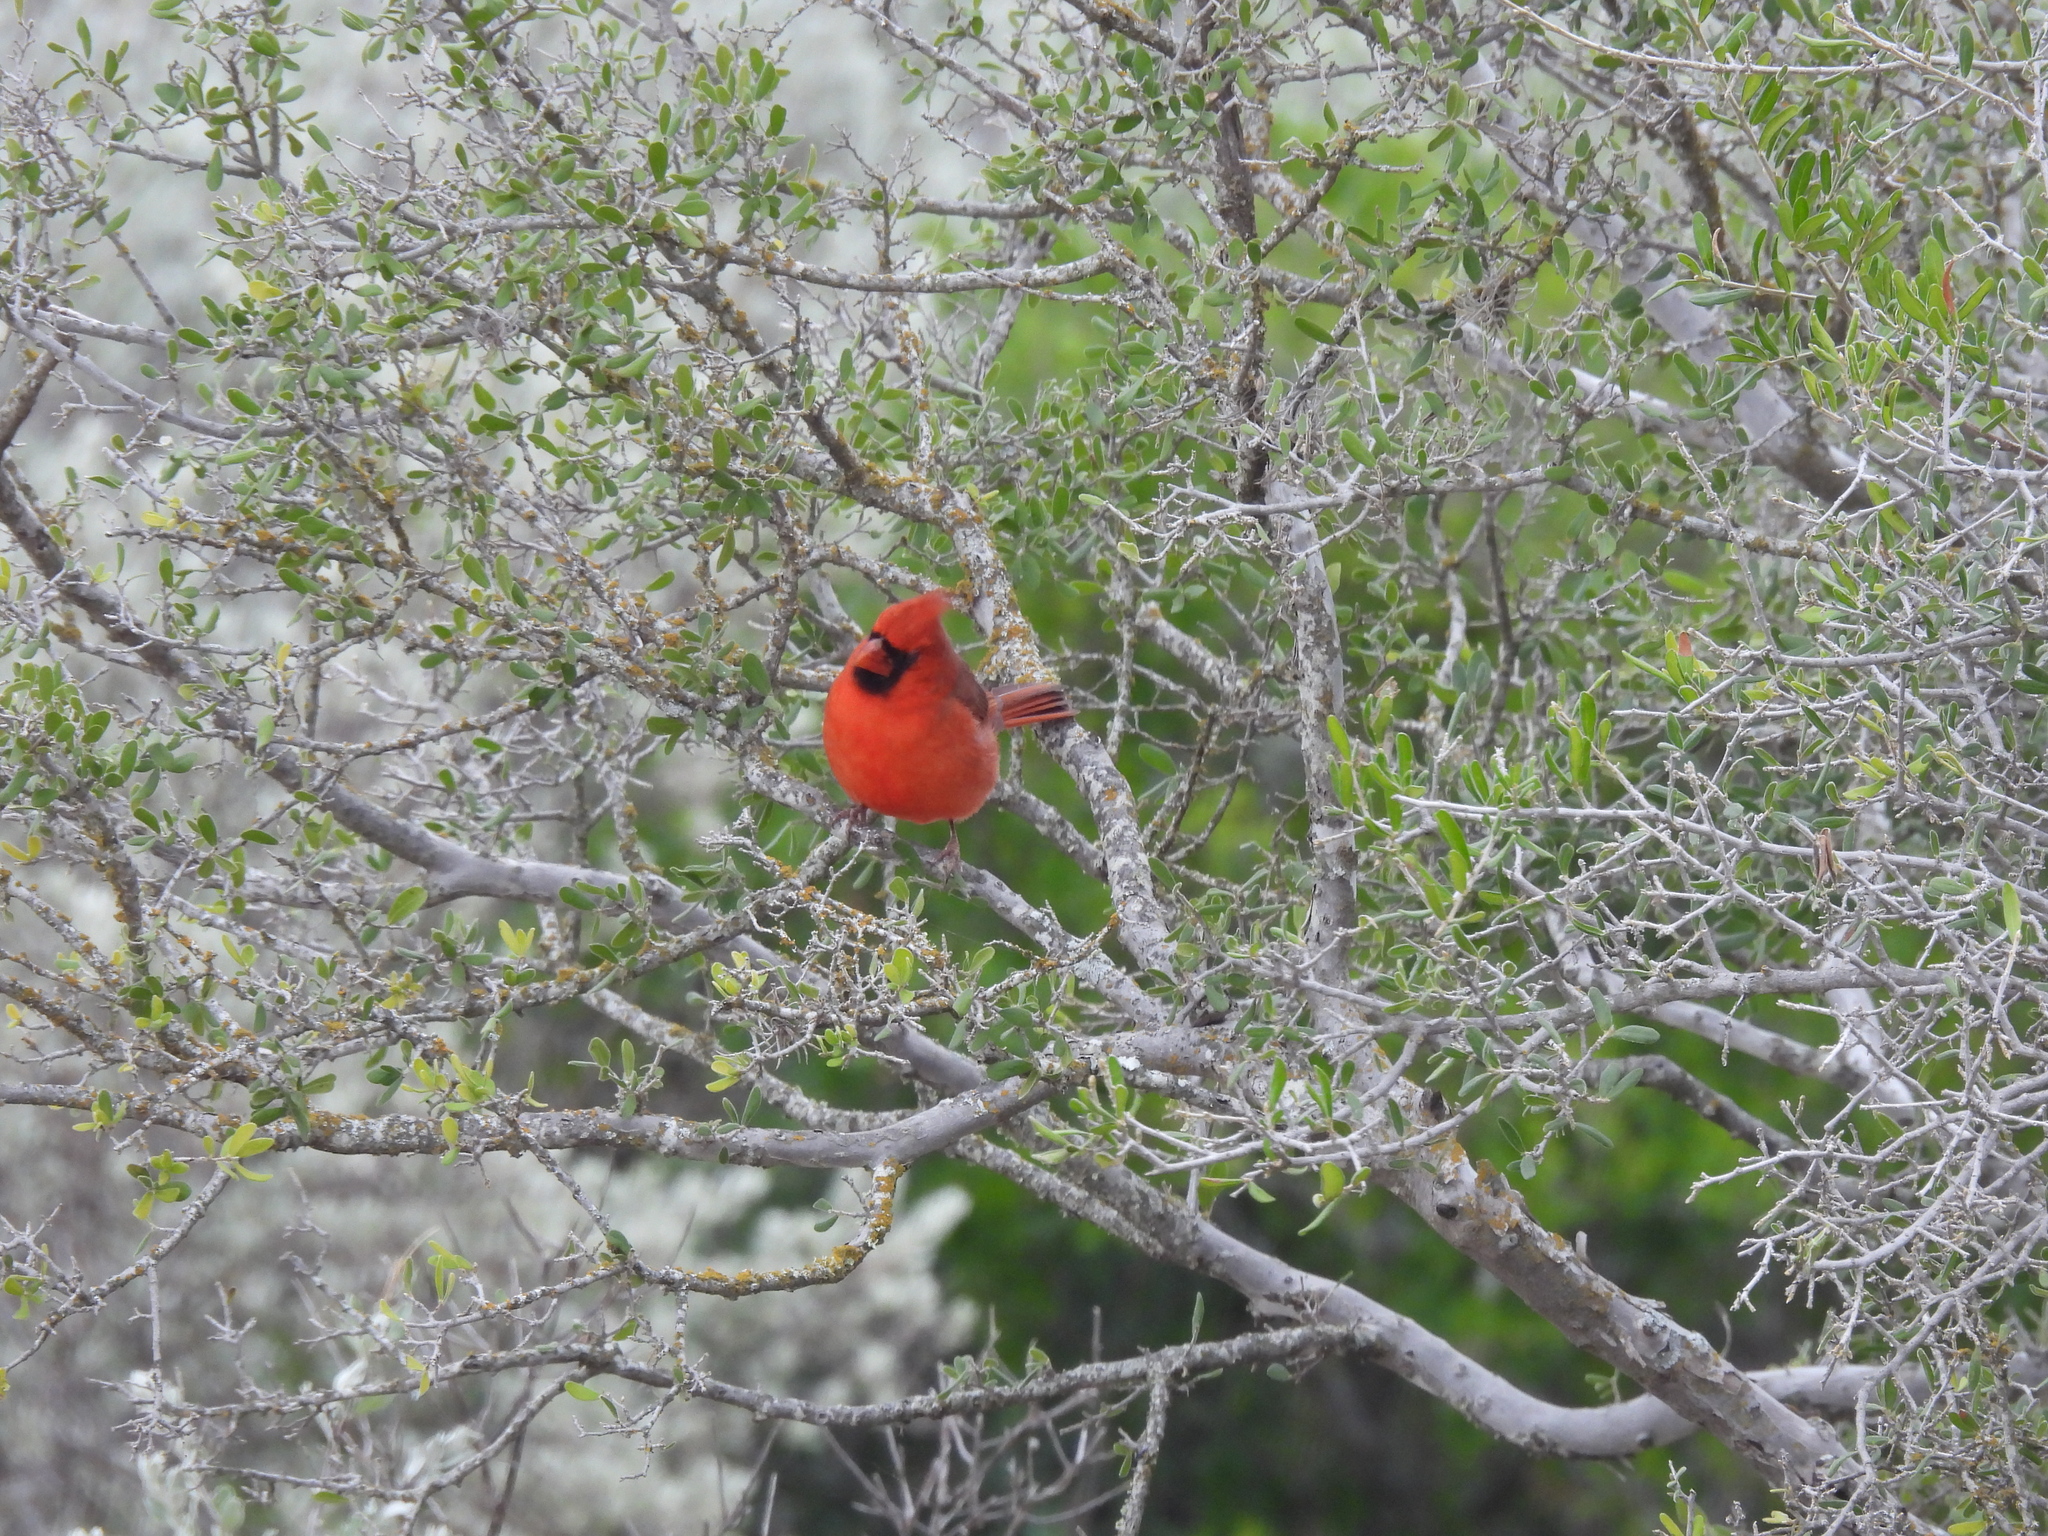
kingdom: Animalia
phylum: Chordata
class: Aves
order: Passeriformes
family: Cardinalidae
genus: Cardinalis
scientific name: Cardinalis cardinalis
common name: Northern cardinal
